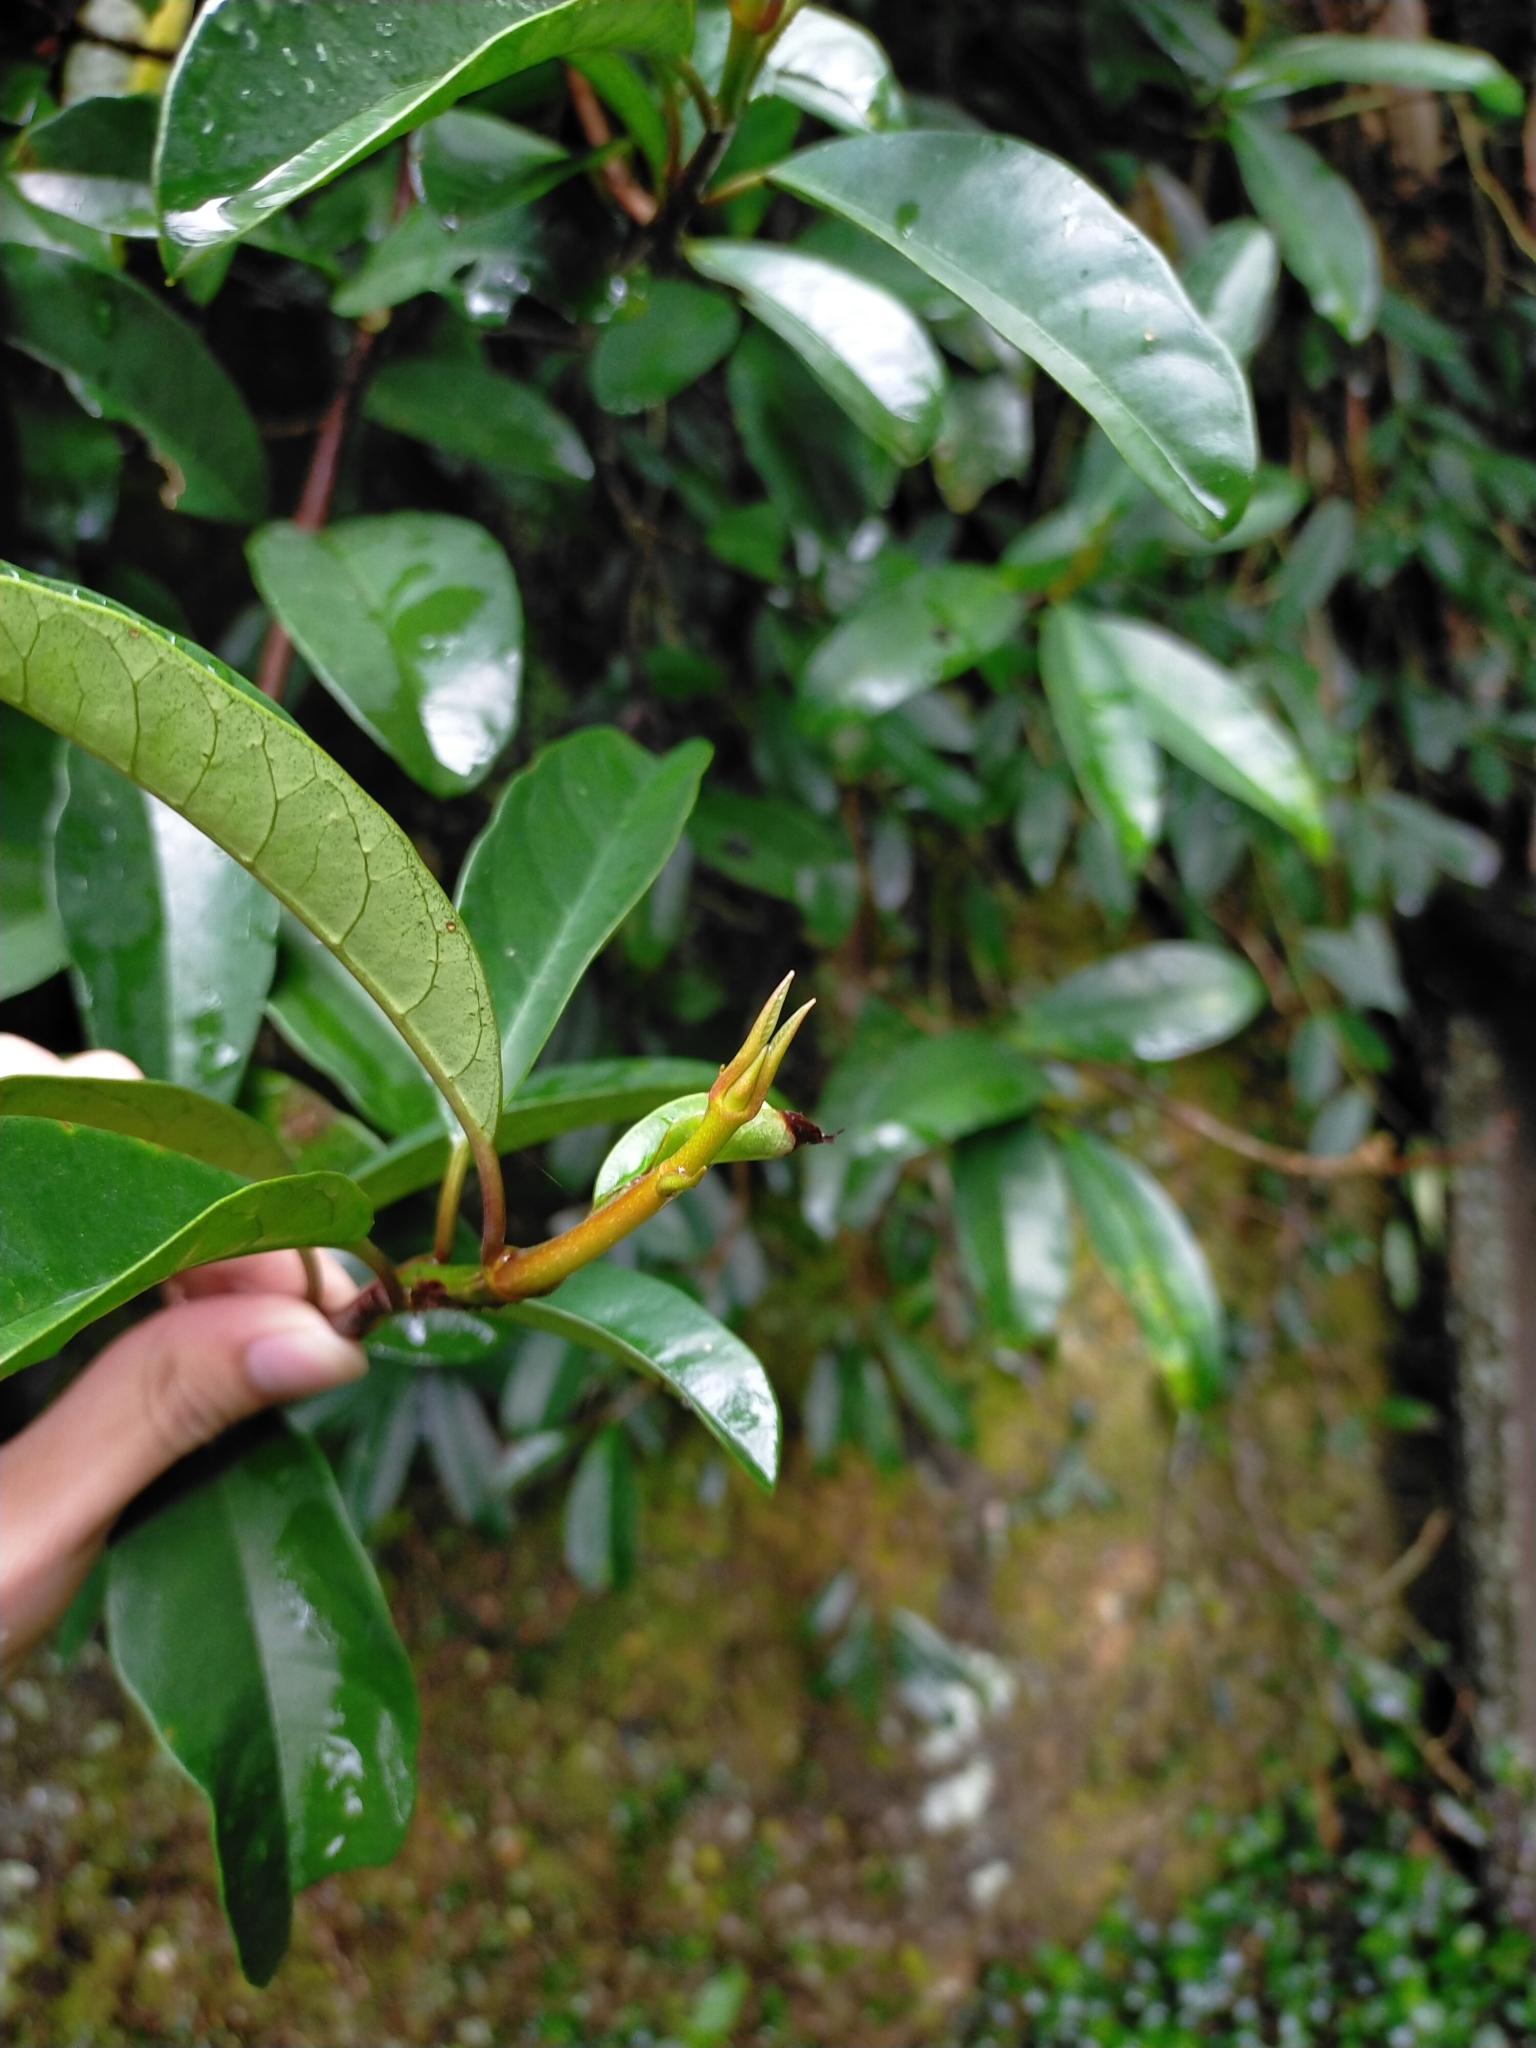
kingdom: Plantae
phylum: Tracheophyta
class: Magnoliopsida
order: Cornales
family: Hydrangeaceae
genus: Hydrangea
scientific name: Hydrangea viburnoides
